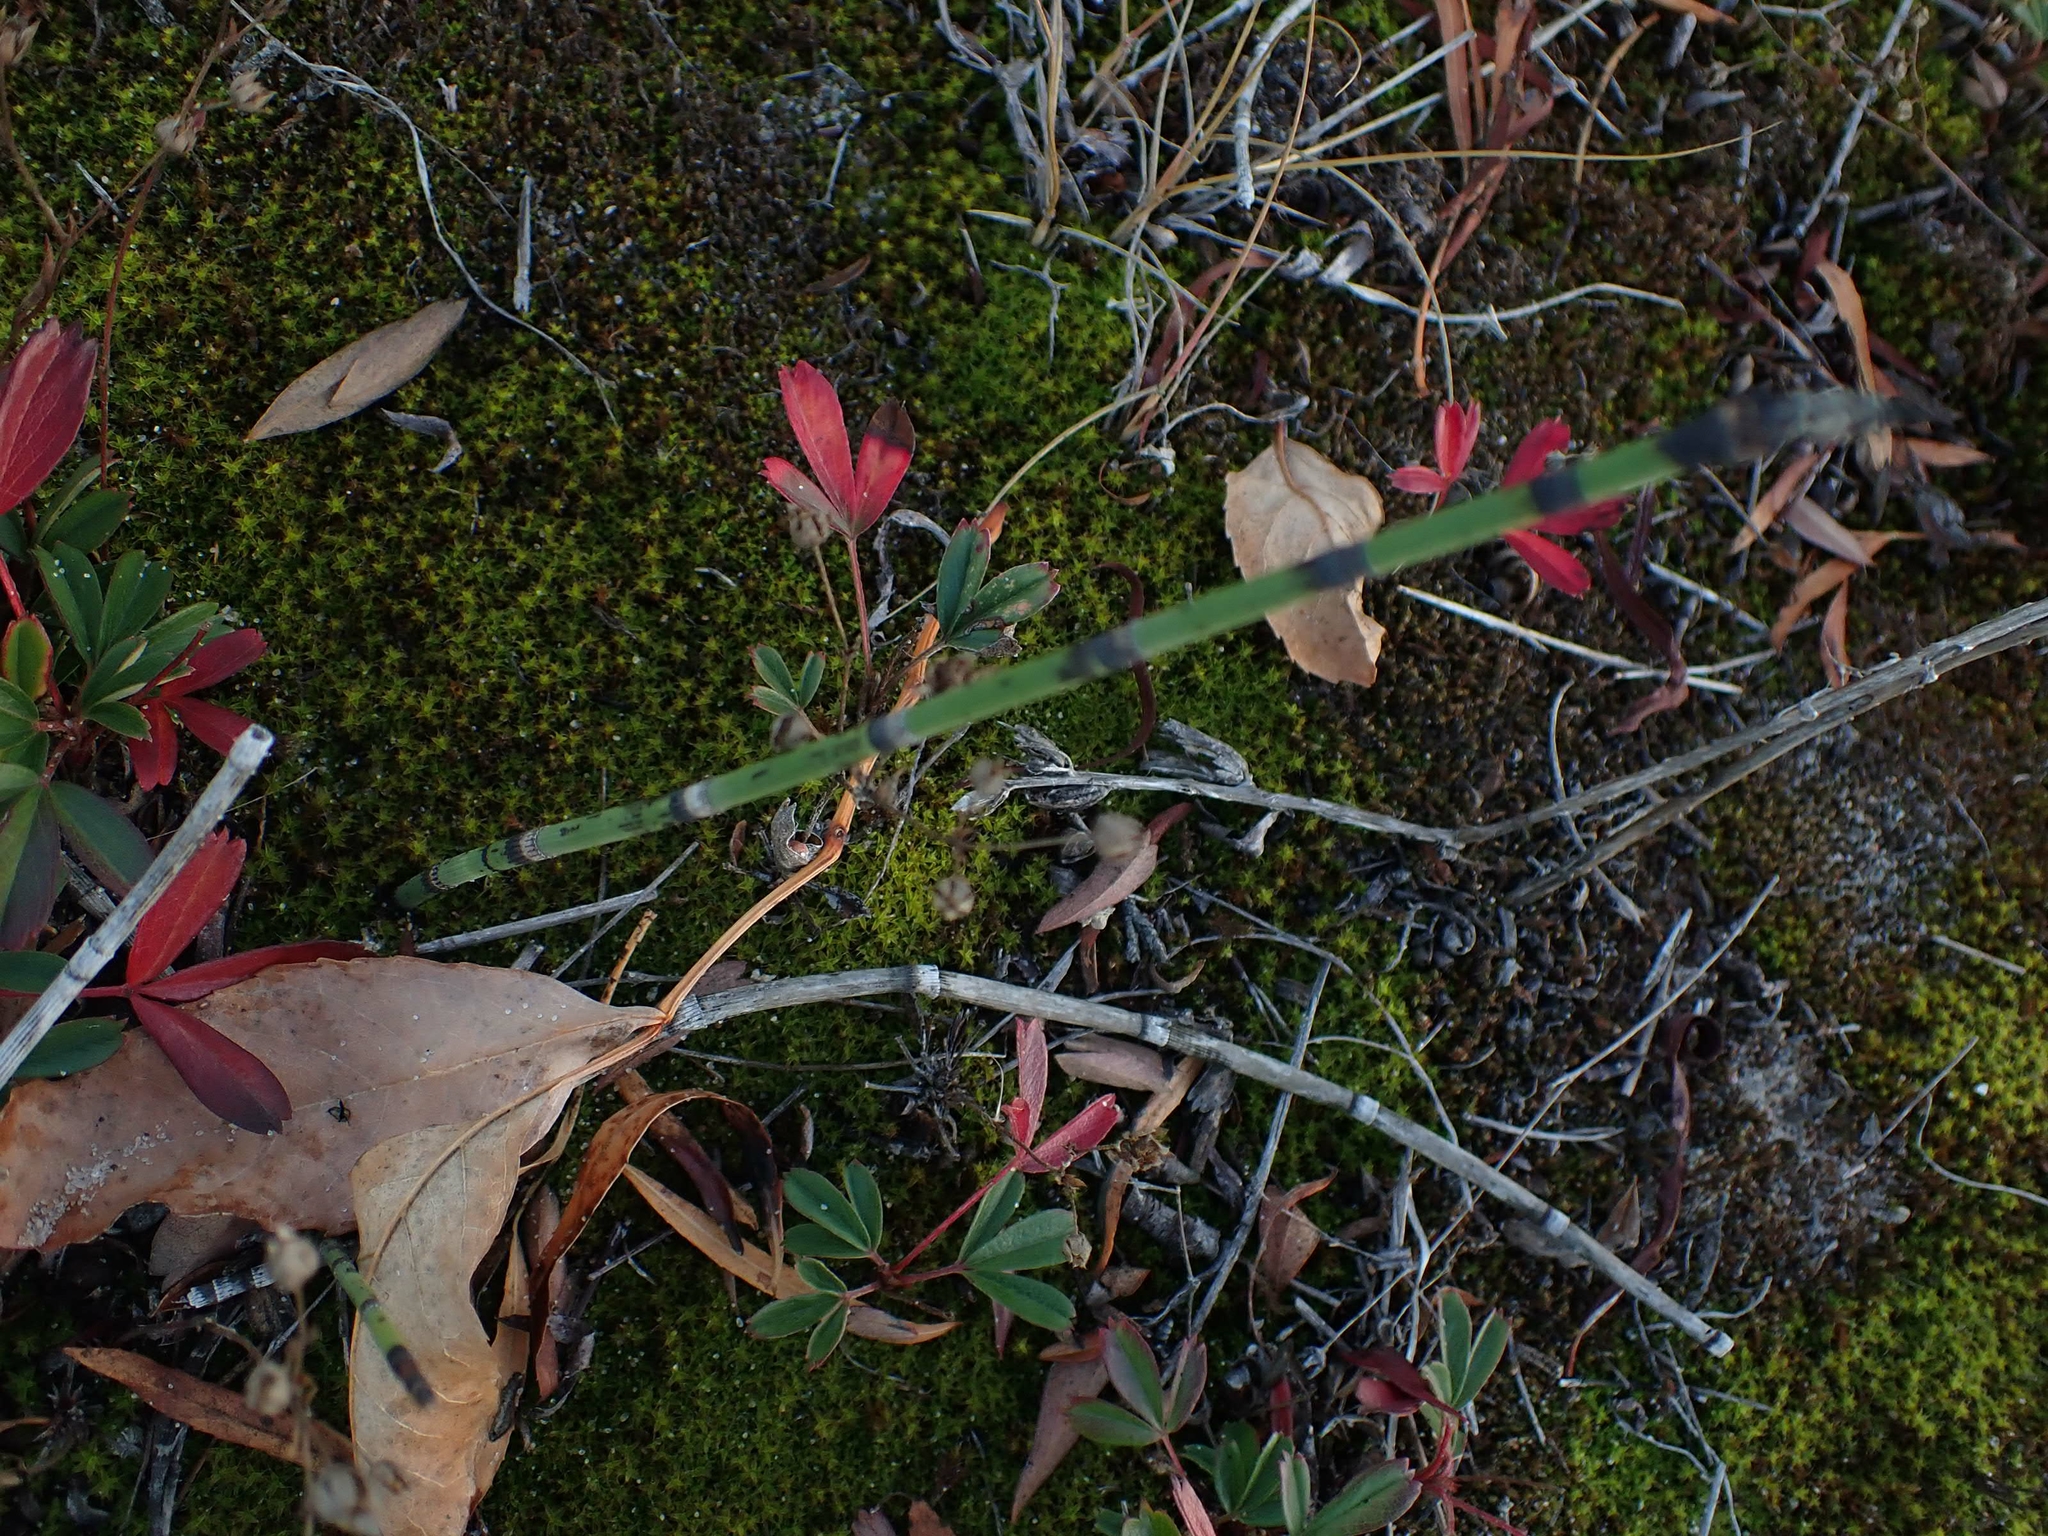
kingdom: Plantae
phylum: Tracheophyta
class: Polypodiopsida
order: Equisetales
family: Equisetaceae
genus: Equisetum
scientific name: Equisetum praealtum
